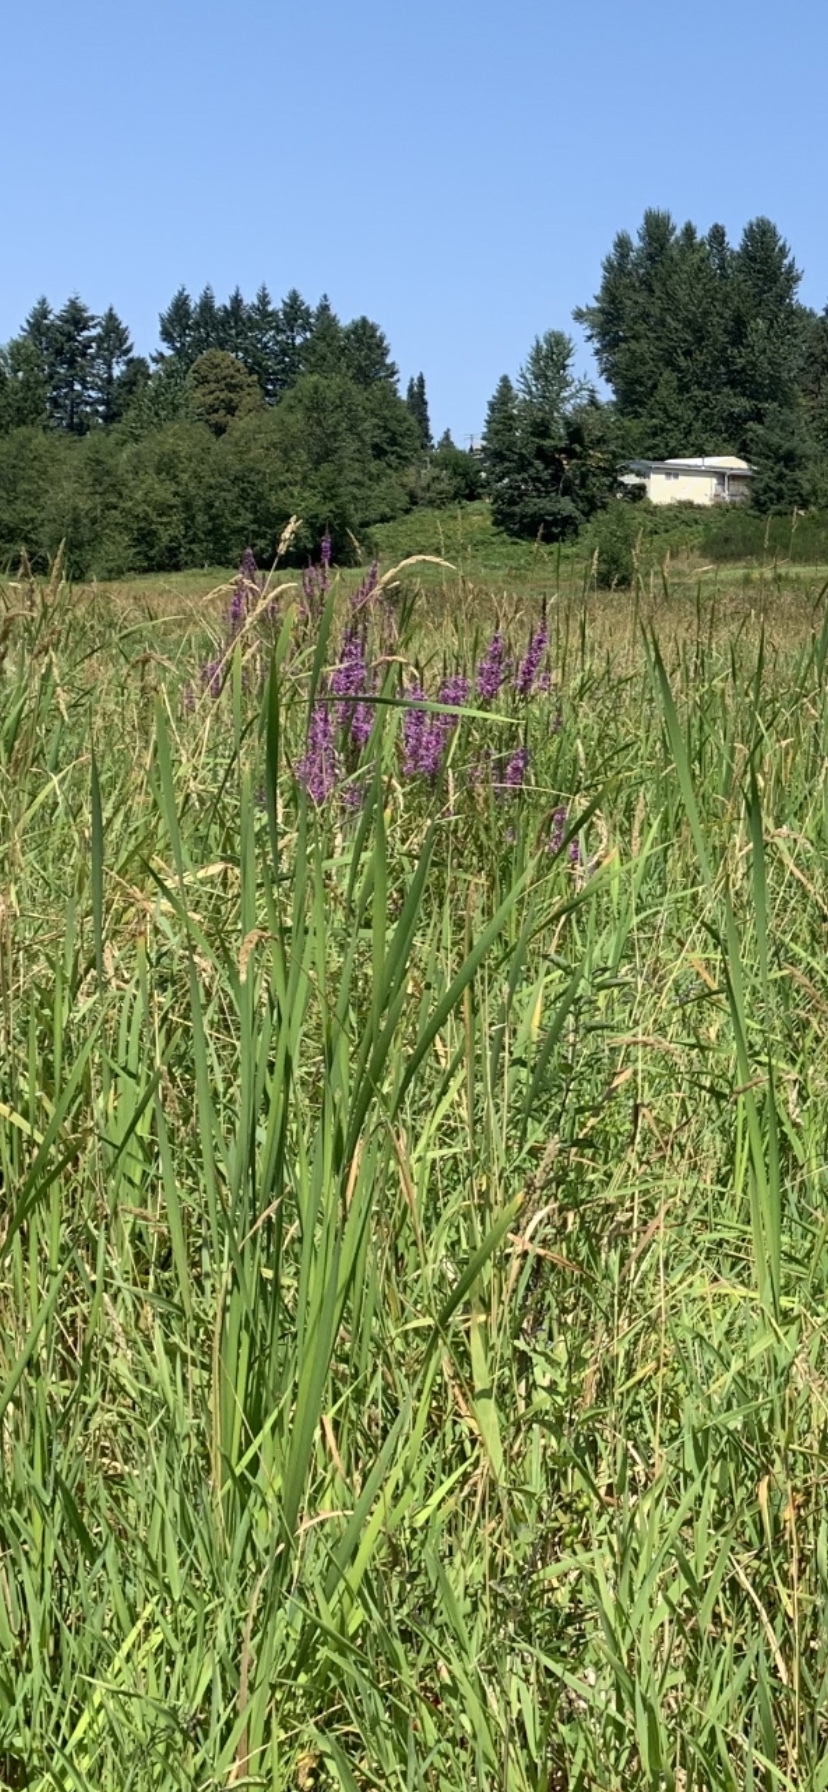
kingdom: Plantae
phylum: Tracheophyta
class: Magnoliopsida
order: Myrtales
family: Lythraceae
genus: Lythrum
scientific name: Lythrum salicaria
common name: Purple loosestrife
